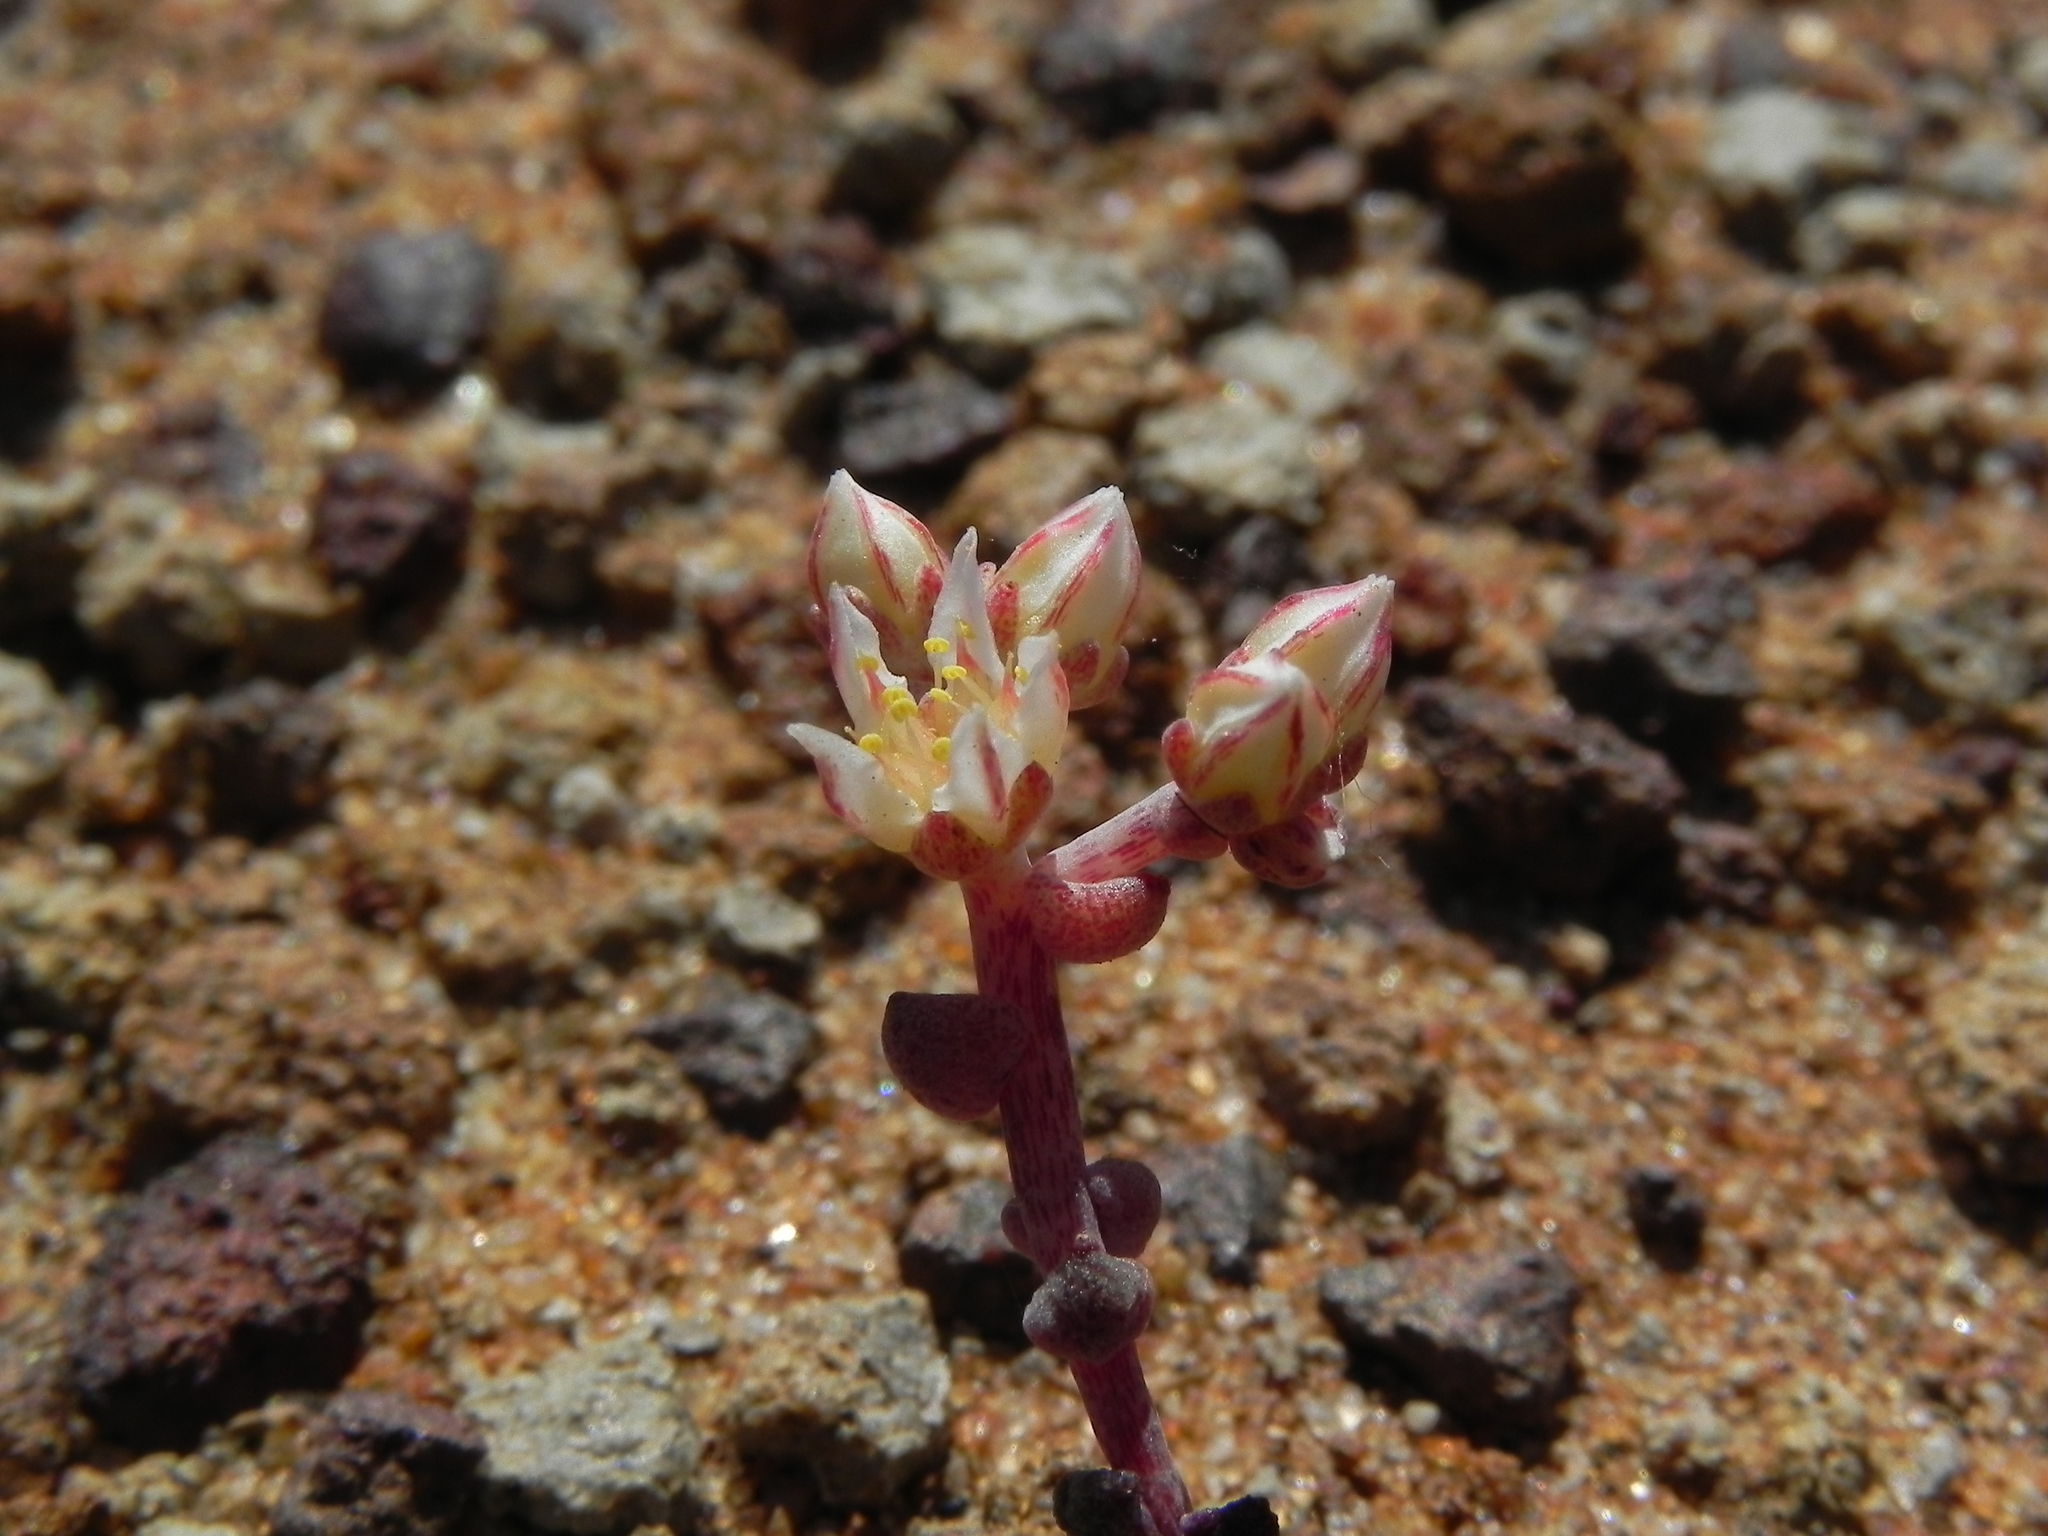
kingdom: Plantae
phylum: Tracheophyta
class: Magnoliopsida
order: Saxifragales
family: Crassulaceae
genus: Dudleya
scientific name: Dudleya blochmaniae
